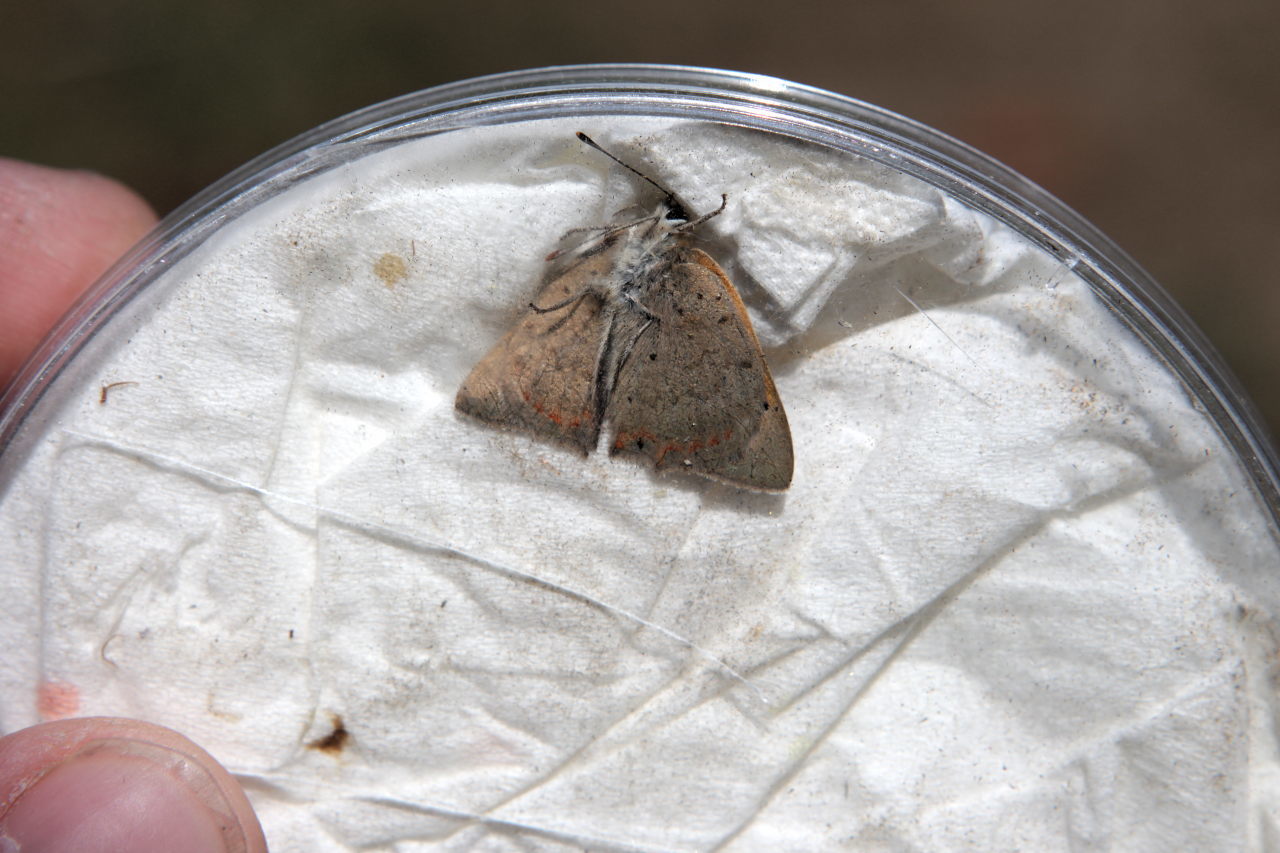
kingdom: Animalia
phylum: Arthropoda
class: Insecta
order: Lepidoptera
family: Lycaenidae
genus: Lycaena
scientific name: Lycaena phlaeas
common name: Small copper
